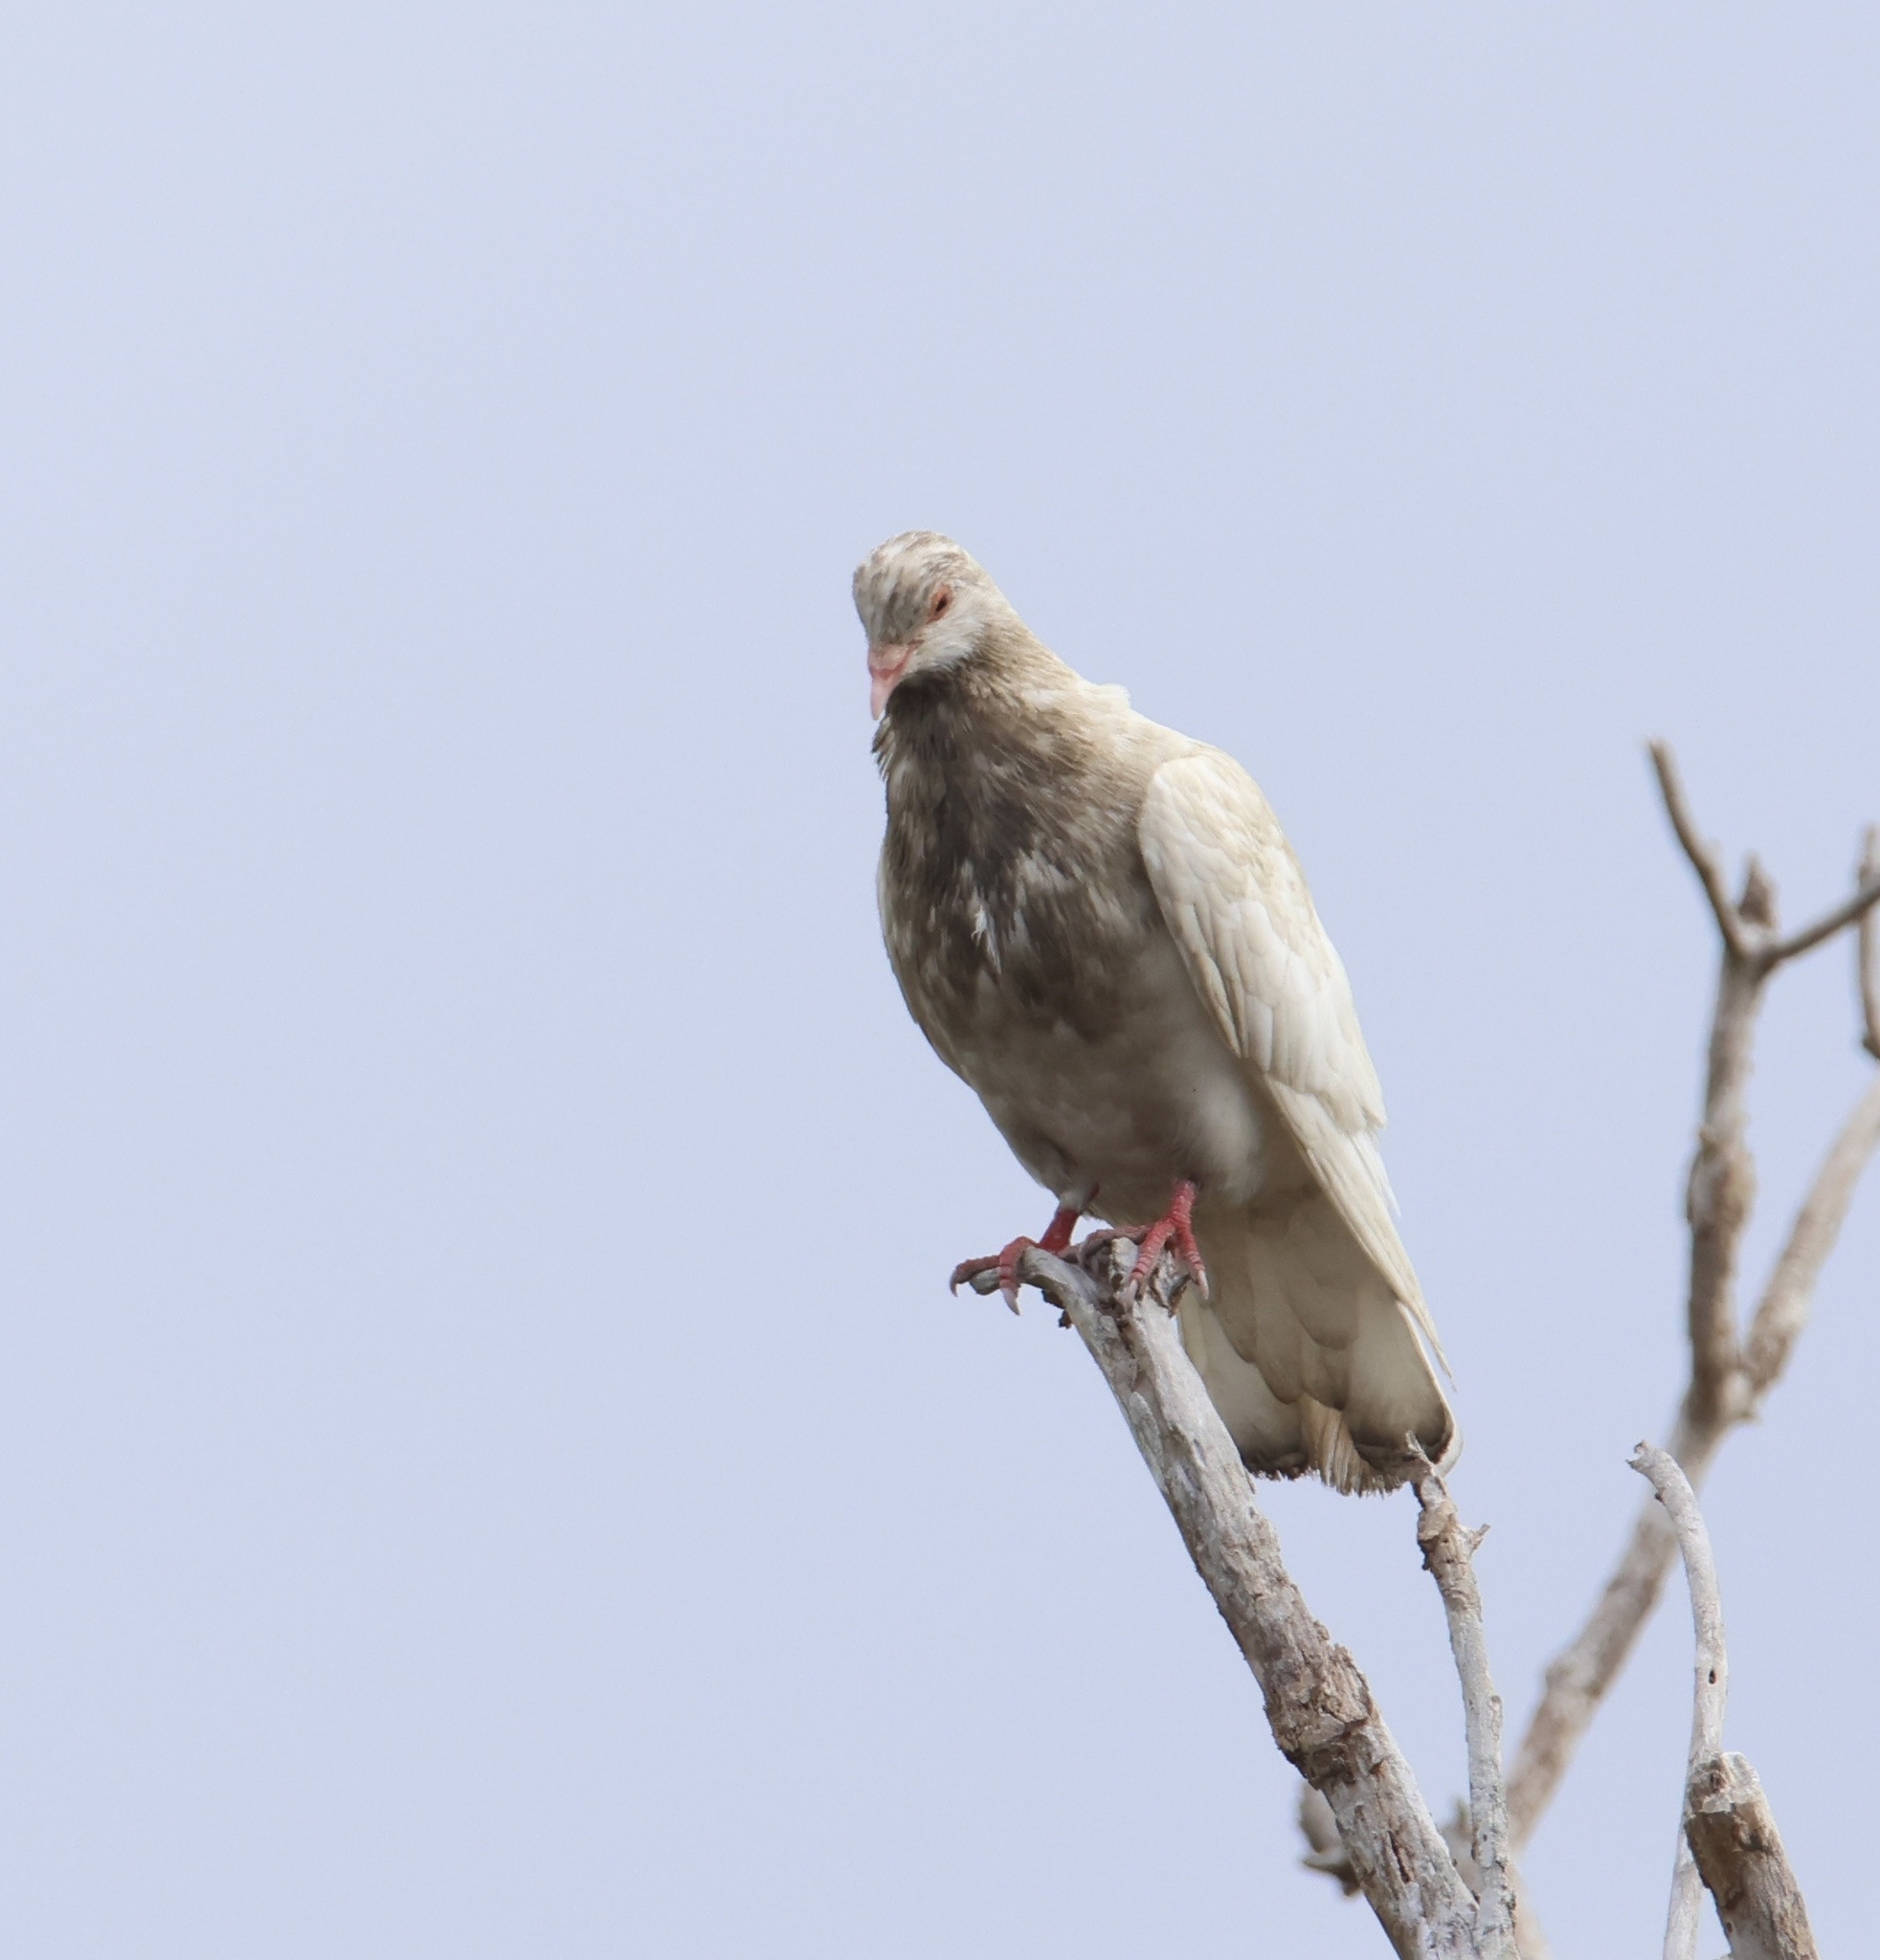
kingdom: Animalia
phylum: Chordata
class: Aves
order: Columbiformes
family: Columbidae
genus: Columba
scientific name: Columba livia
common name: Rock pigeon
